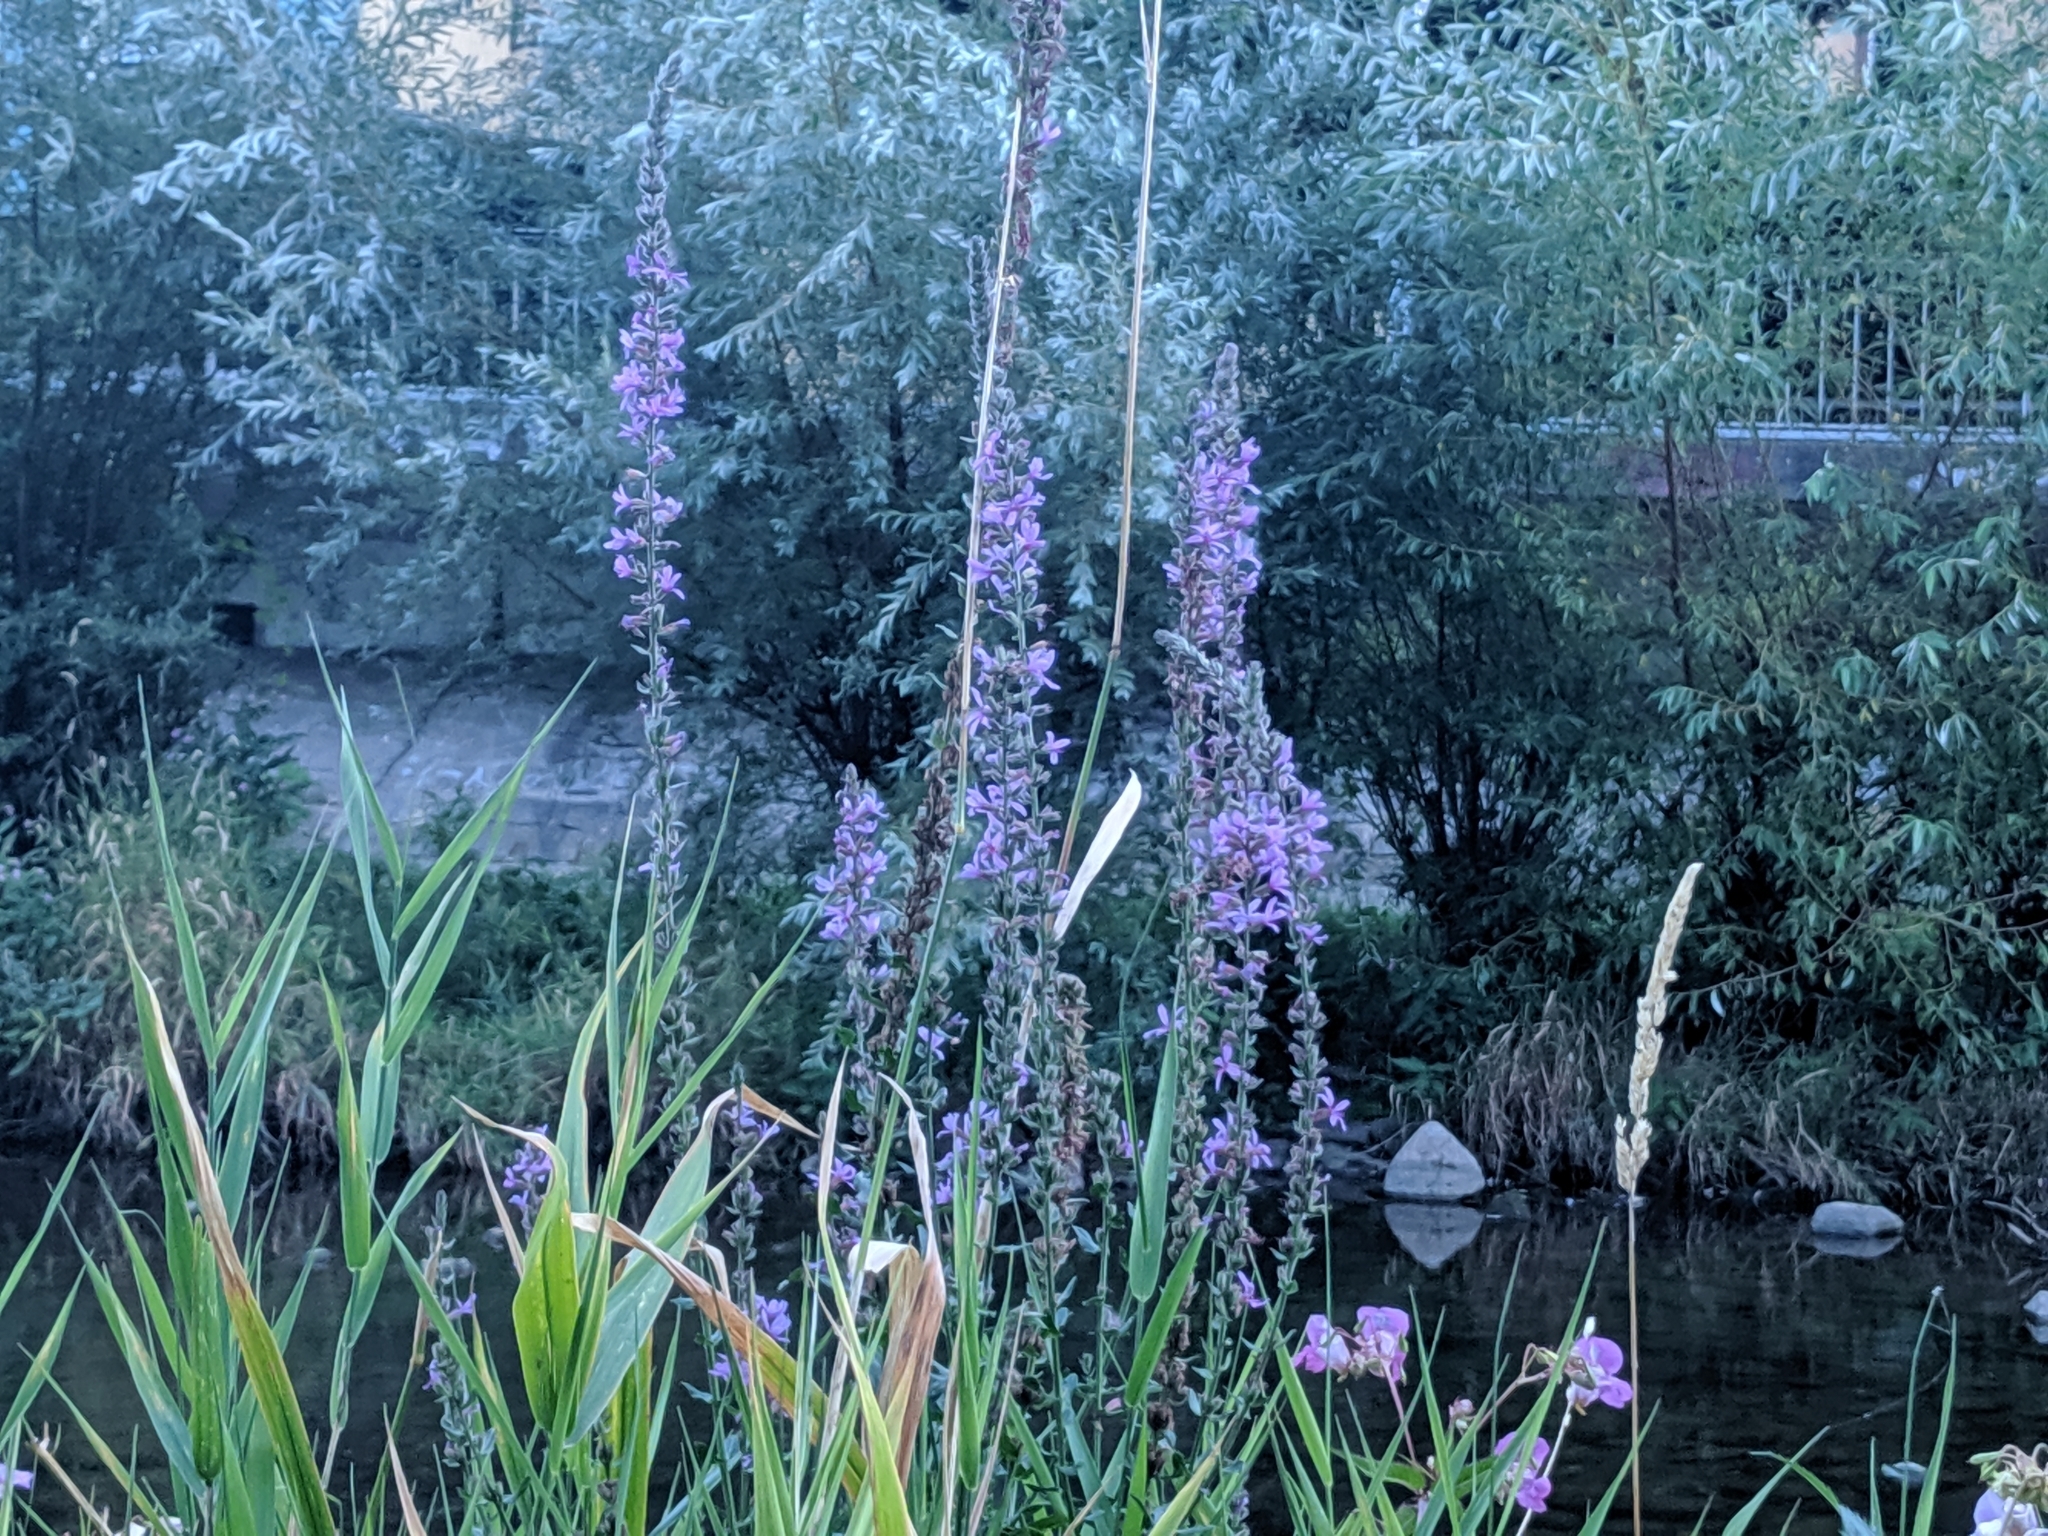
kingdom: Plantae
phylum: Tracheophyta
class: Magnoliopsida
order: Myrtales
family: Lythraceae
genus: Lythrum
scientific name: Lythrum salicaria
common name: Purple loosestrife
